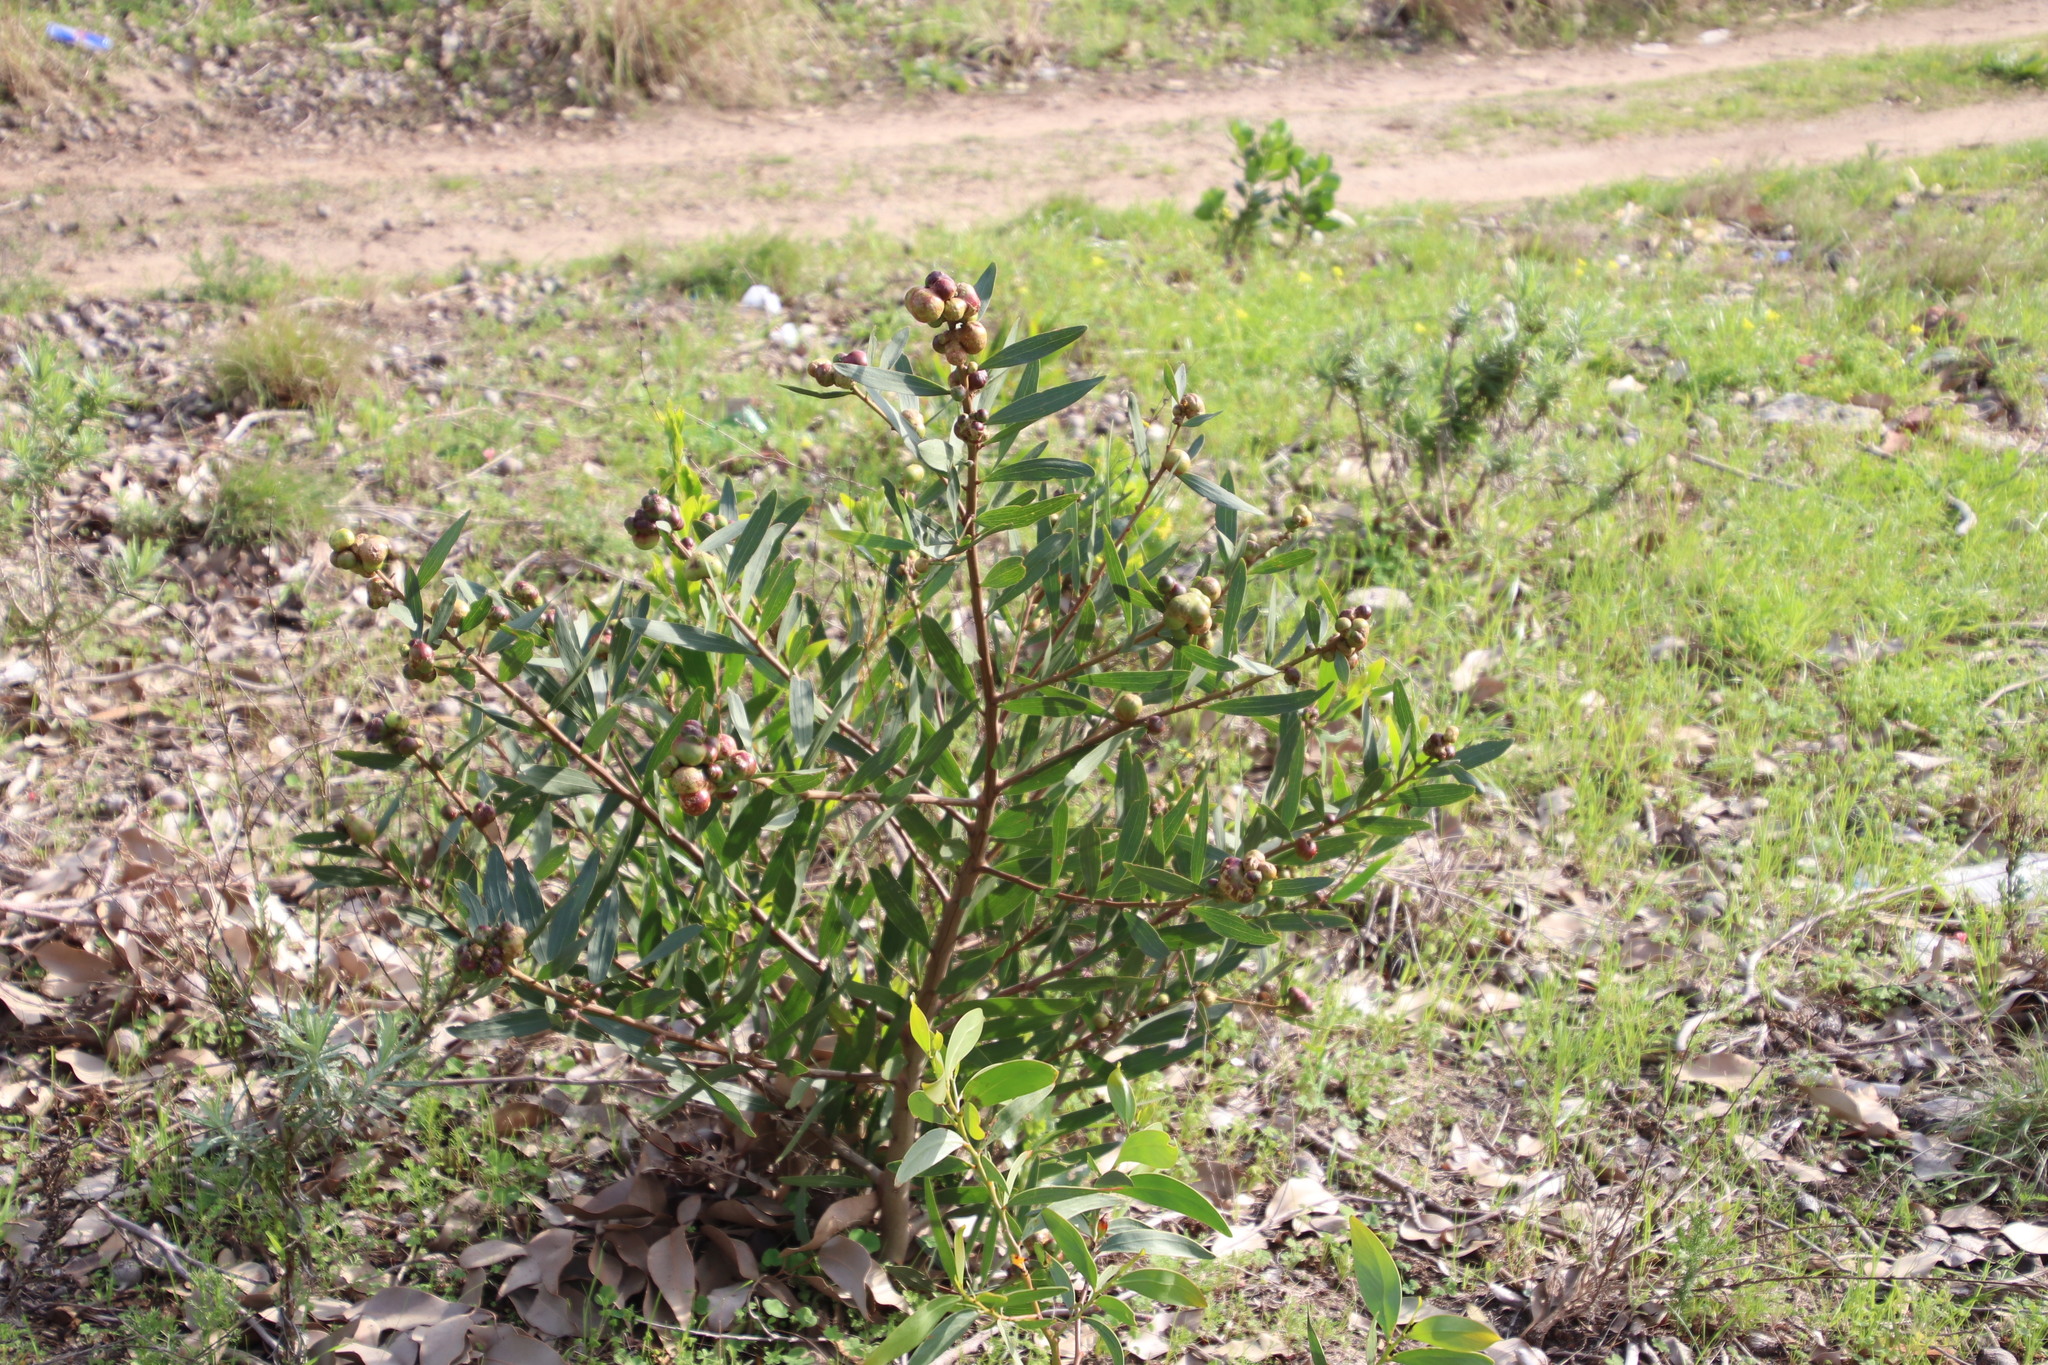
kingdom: Plantae
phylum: Tracheophyta
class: Magnoliopsida
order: Fabales
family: Fabaceae
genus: Acacia
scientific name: Acacia longifolia
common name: Sydney golden wattle
